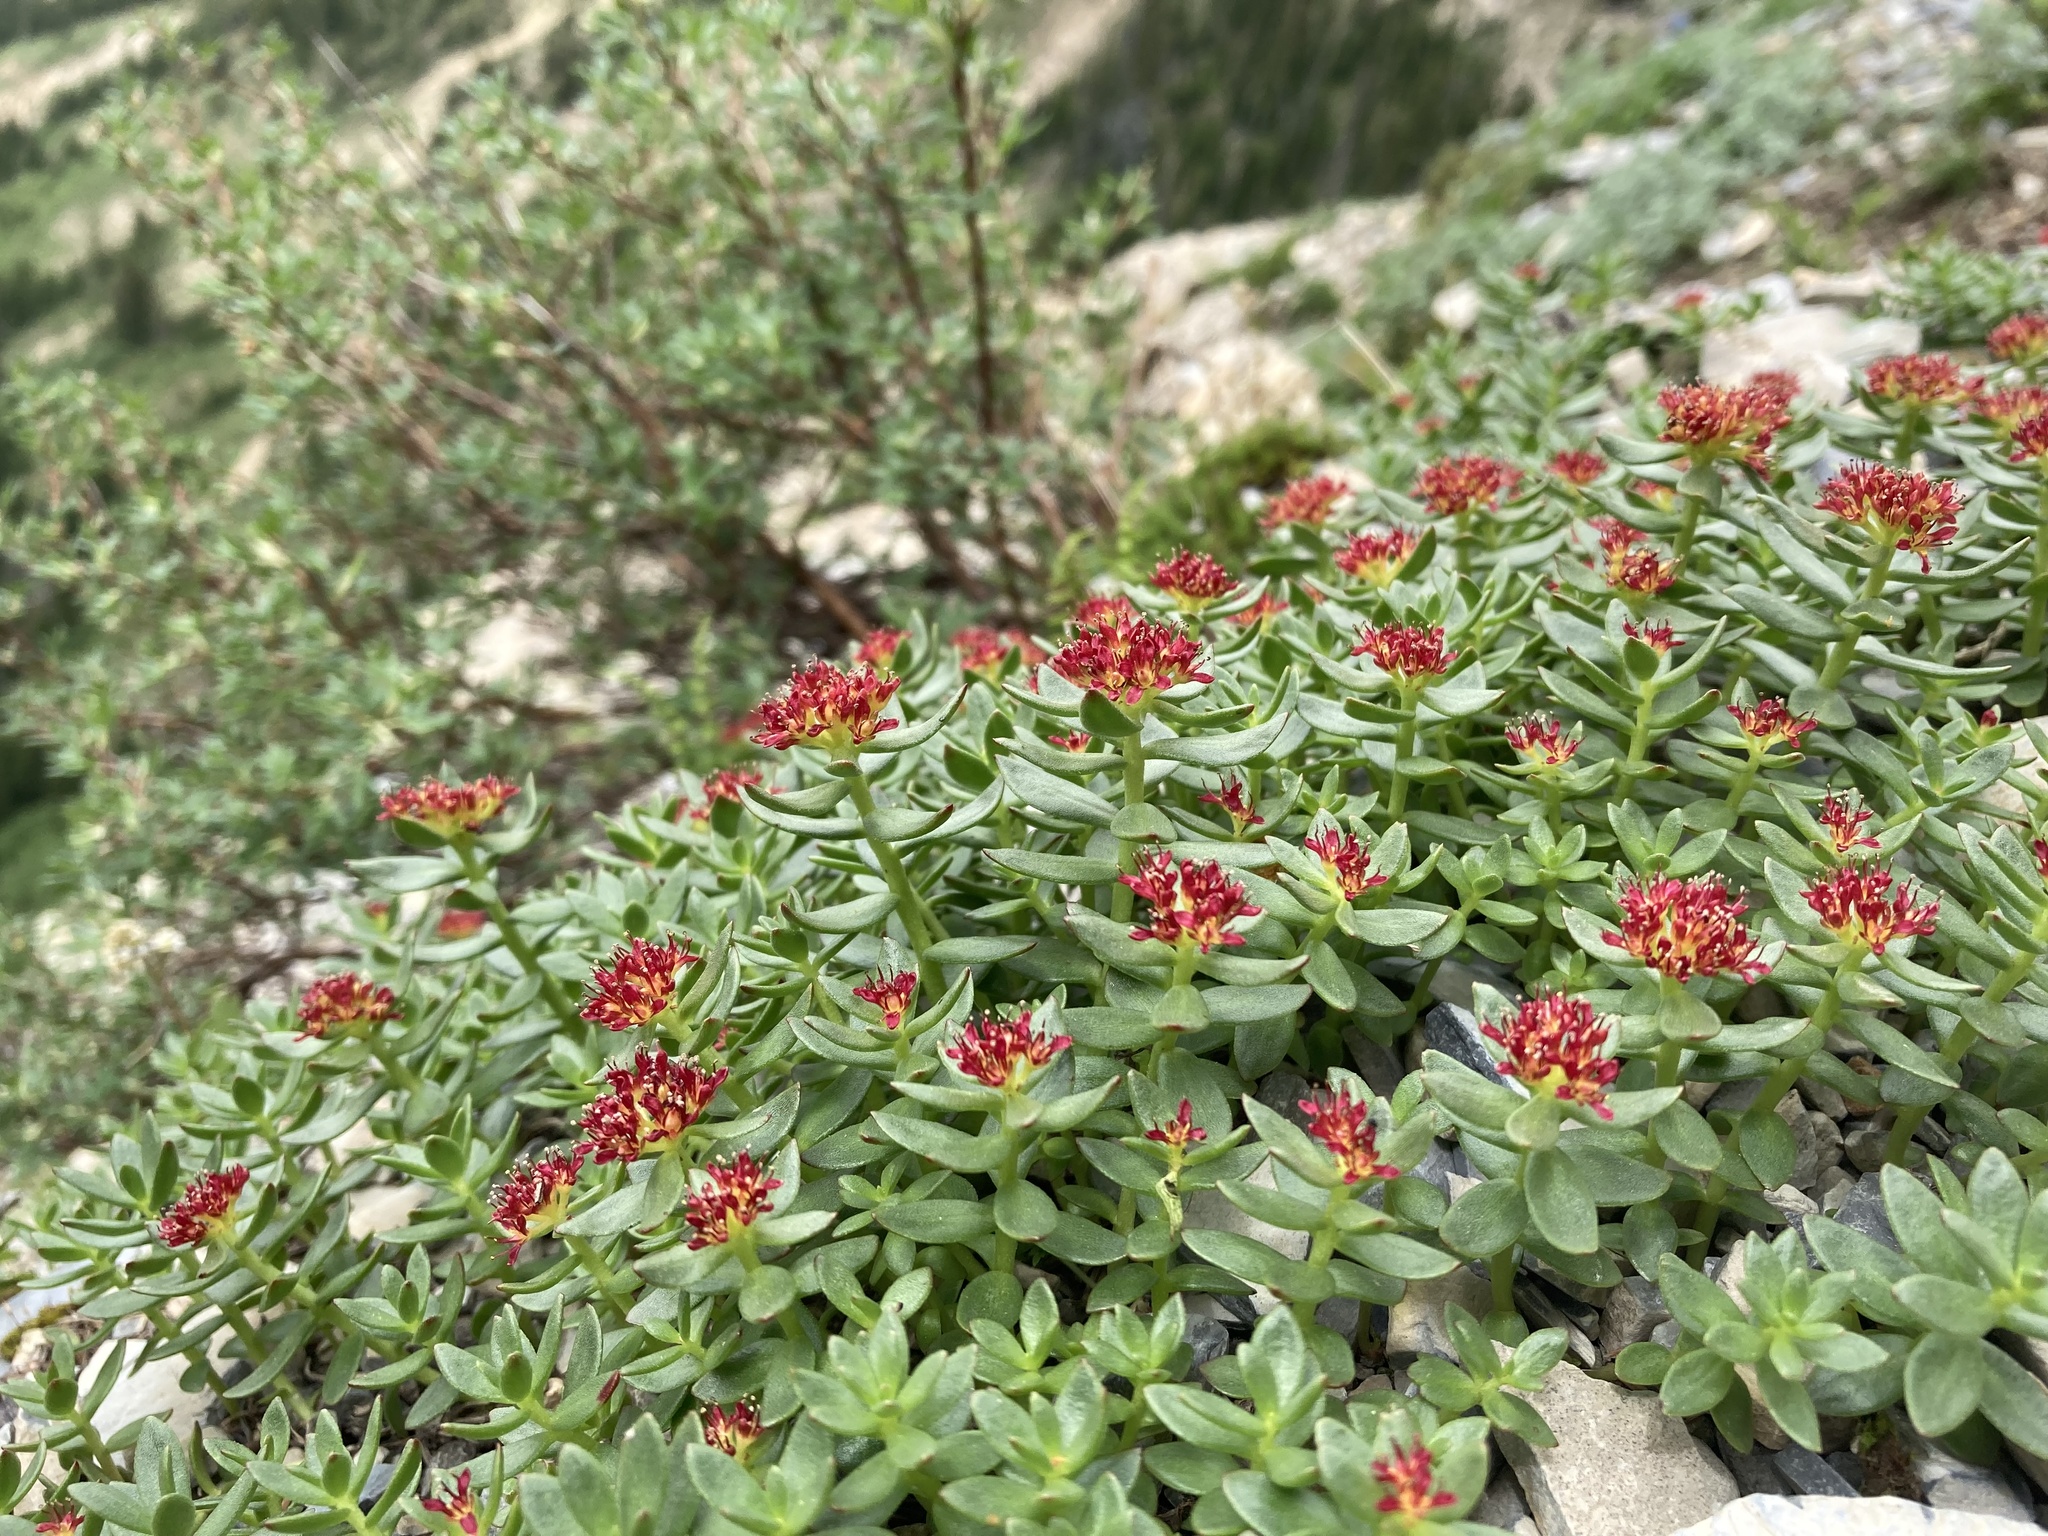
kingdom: Plantae
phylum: Tracheophyta
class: Magnoliopsida
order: Saxifragales
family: Crassulaceae
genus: Rhodiola
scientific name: Rhodiola integrifolia
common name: Western roseroot
